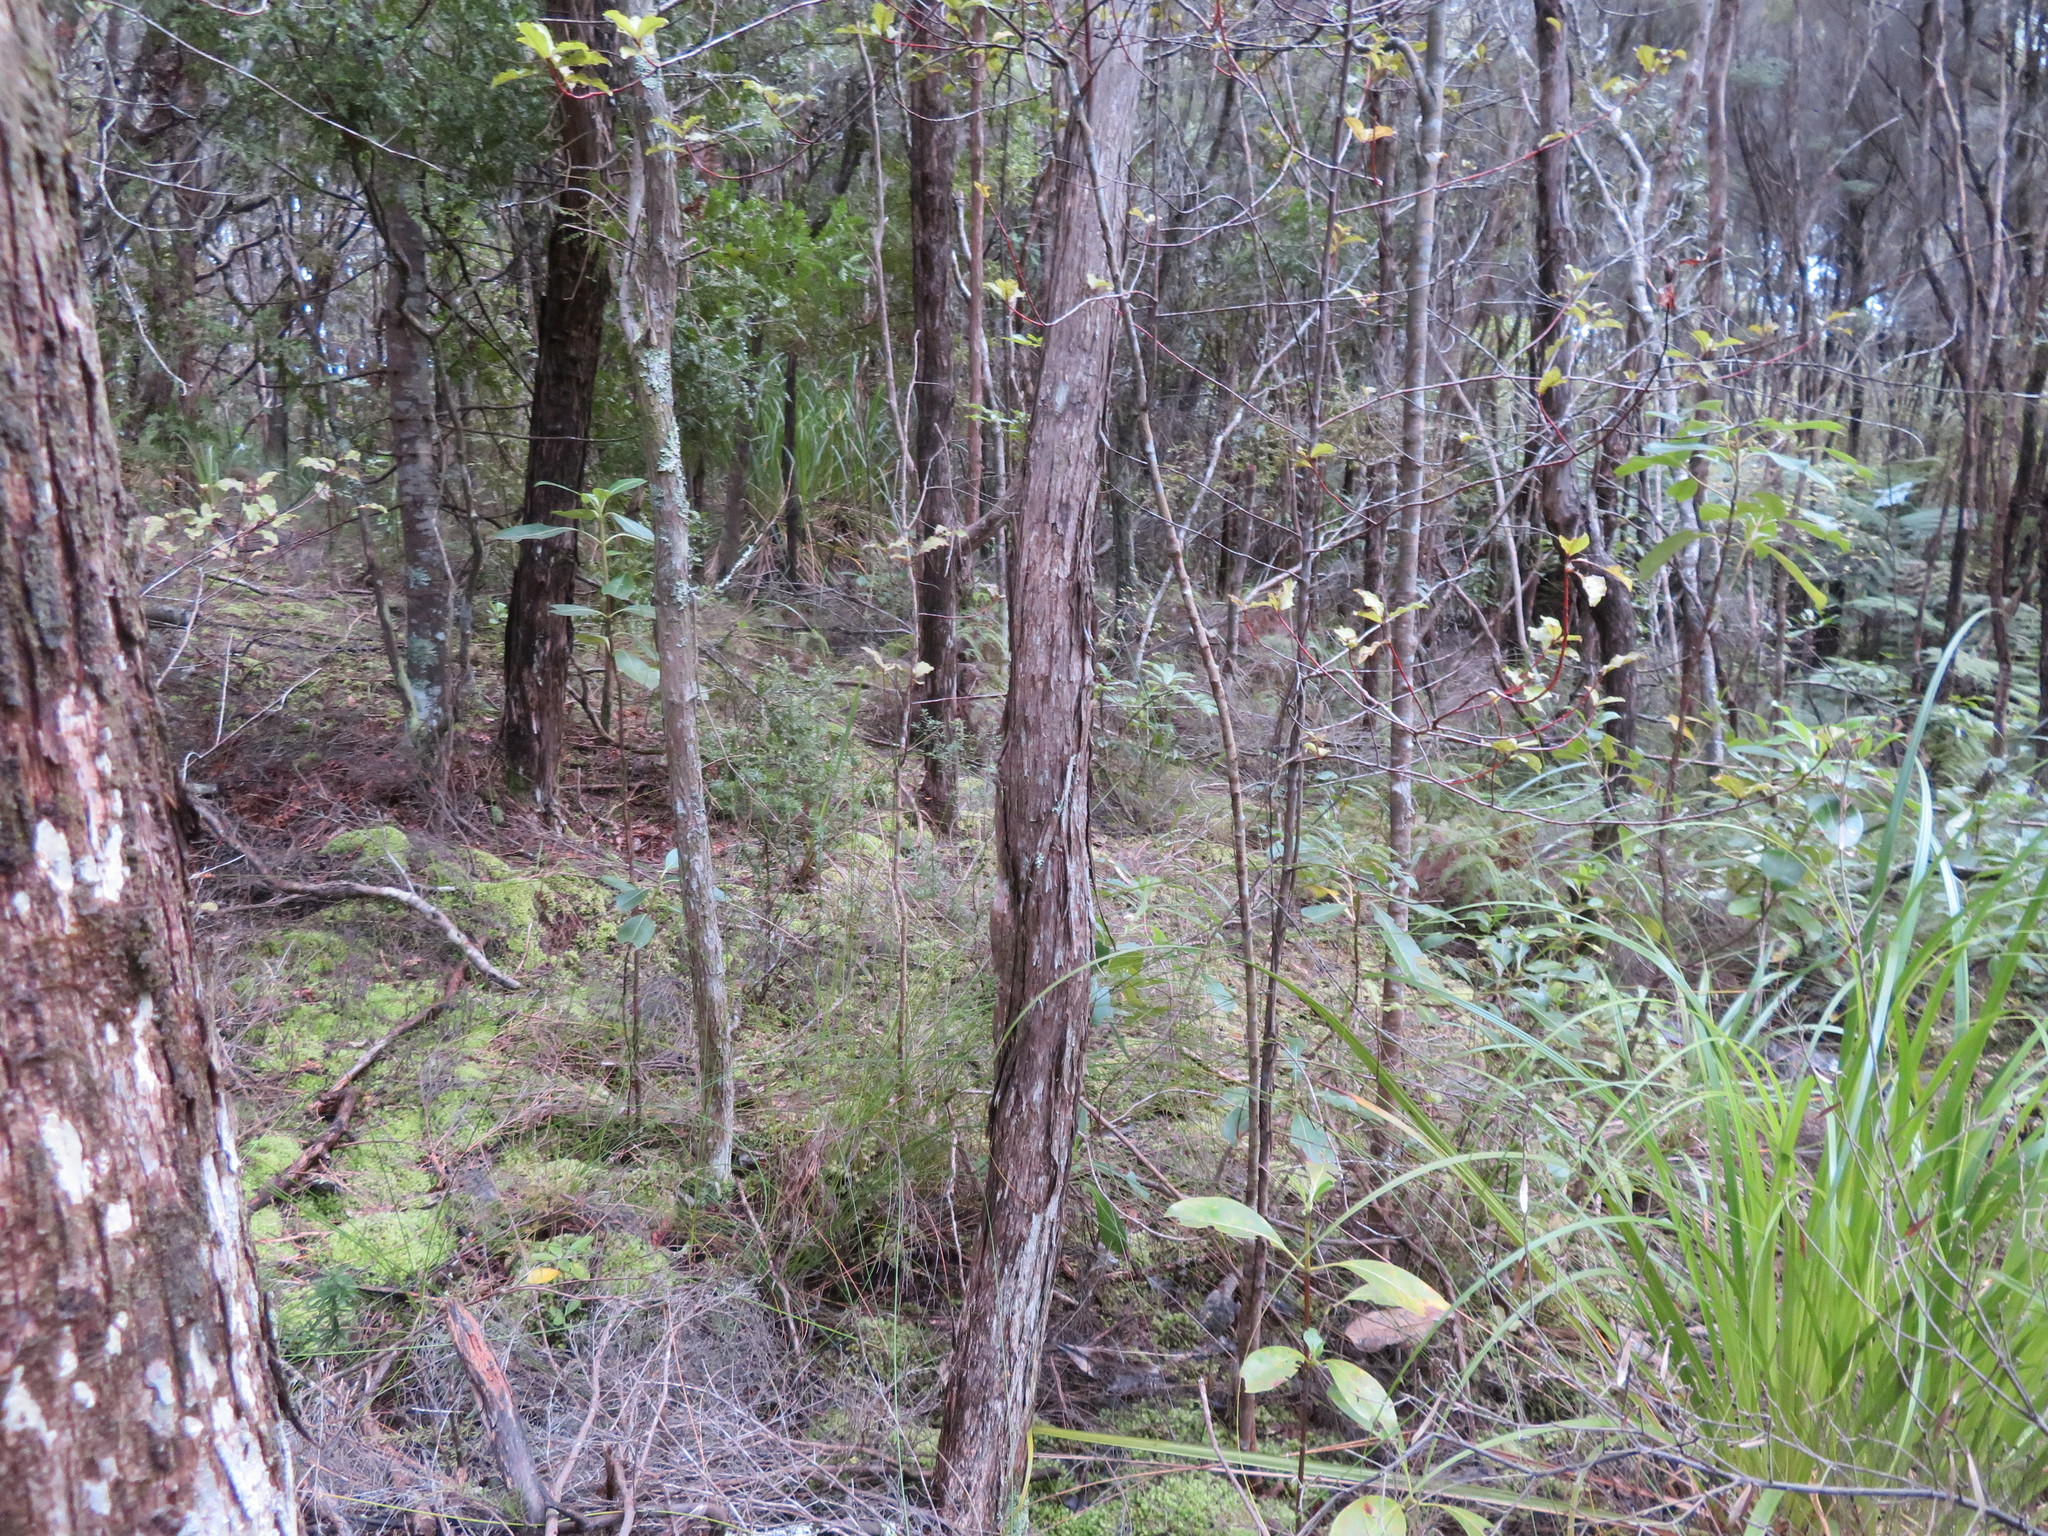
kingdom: Plantae
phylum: Tracheophyta
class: Magnoliopsida
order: Ericales
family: Primulaceae
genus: Myrsine
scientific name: Myrsine australis
